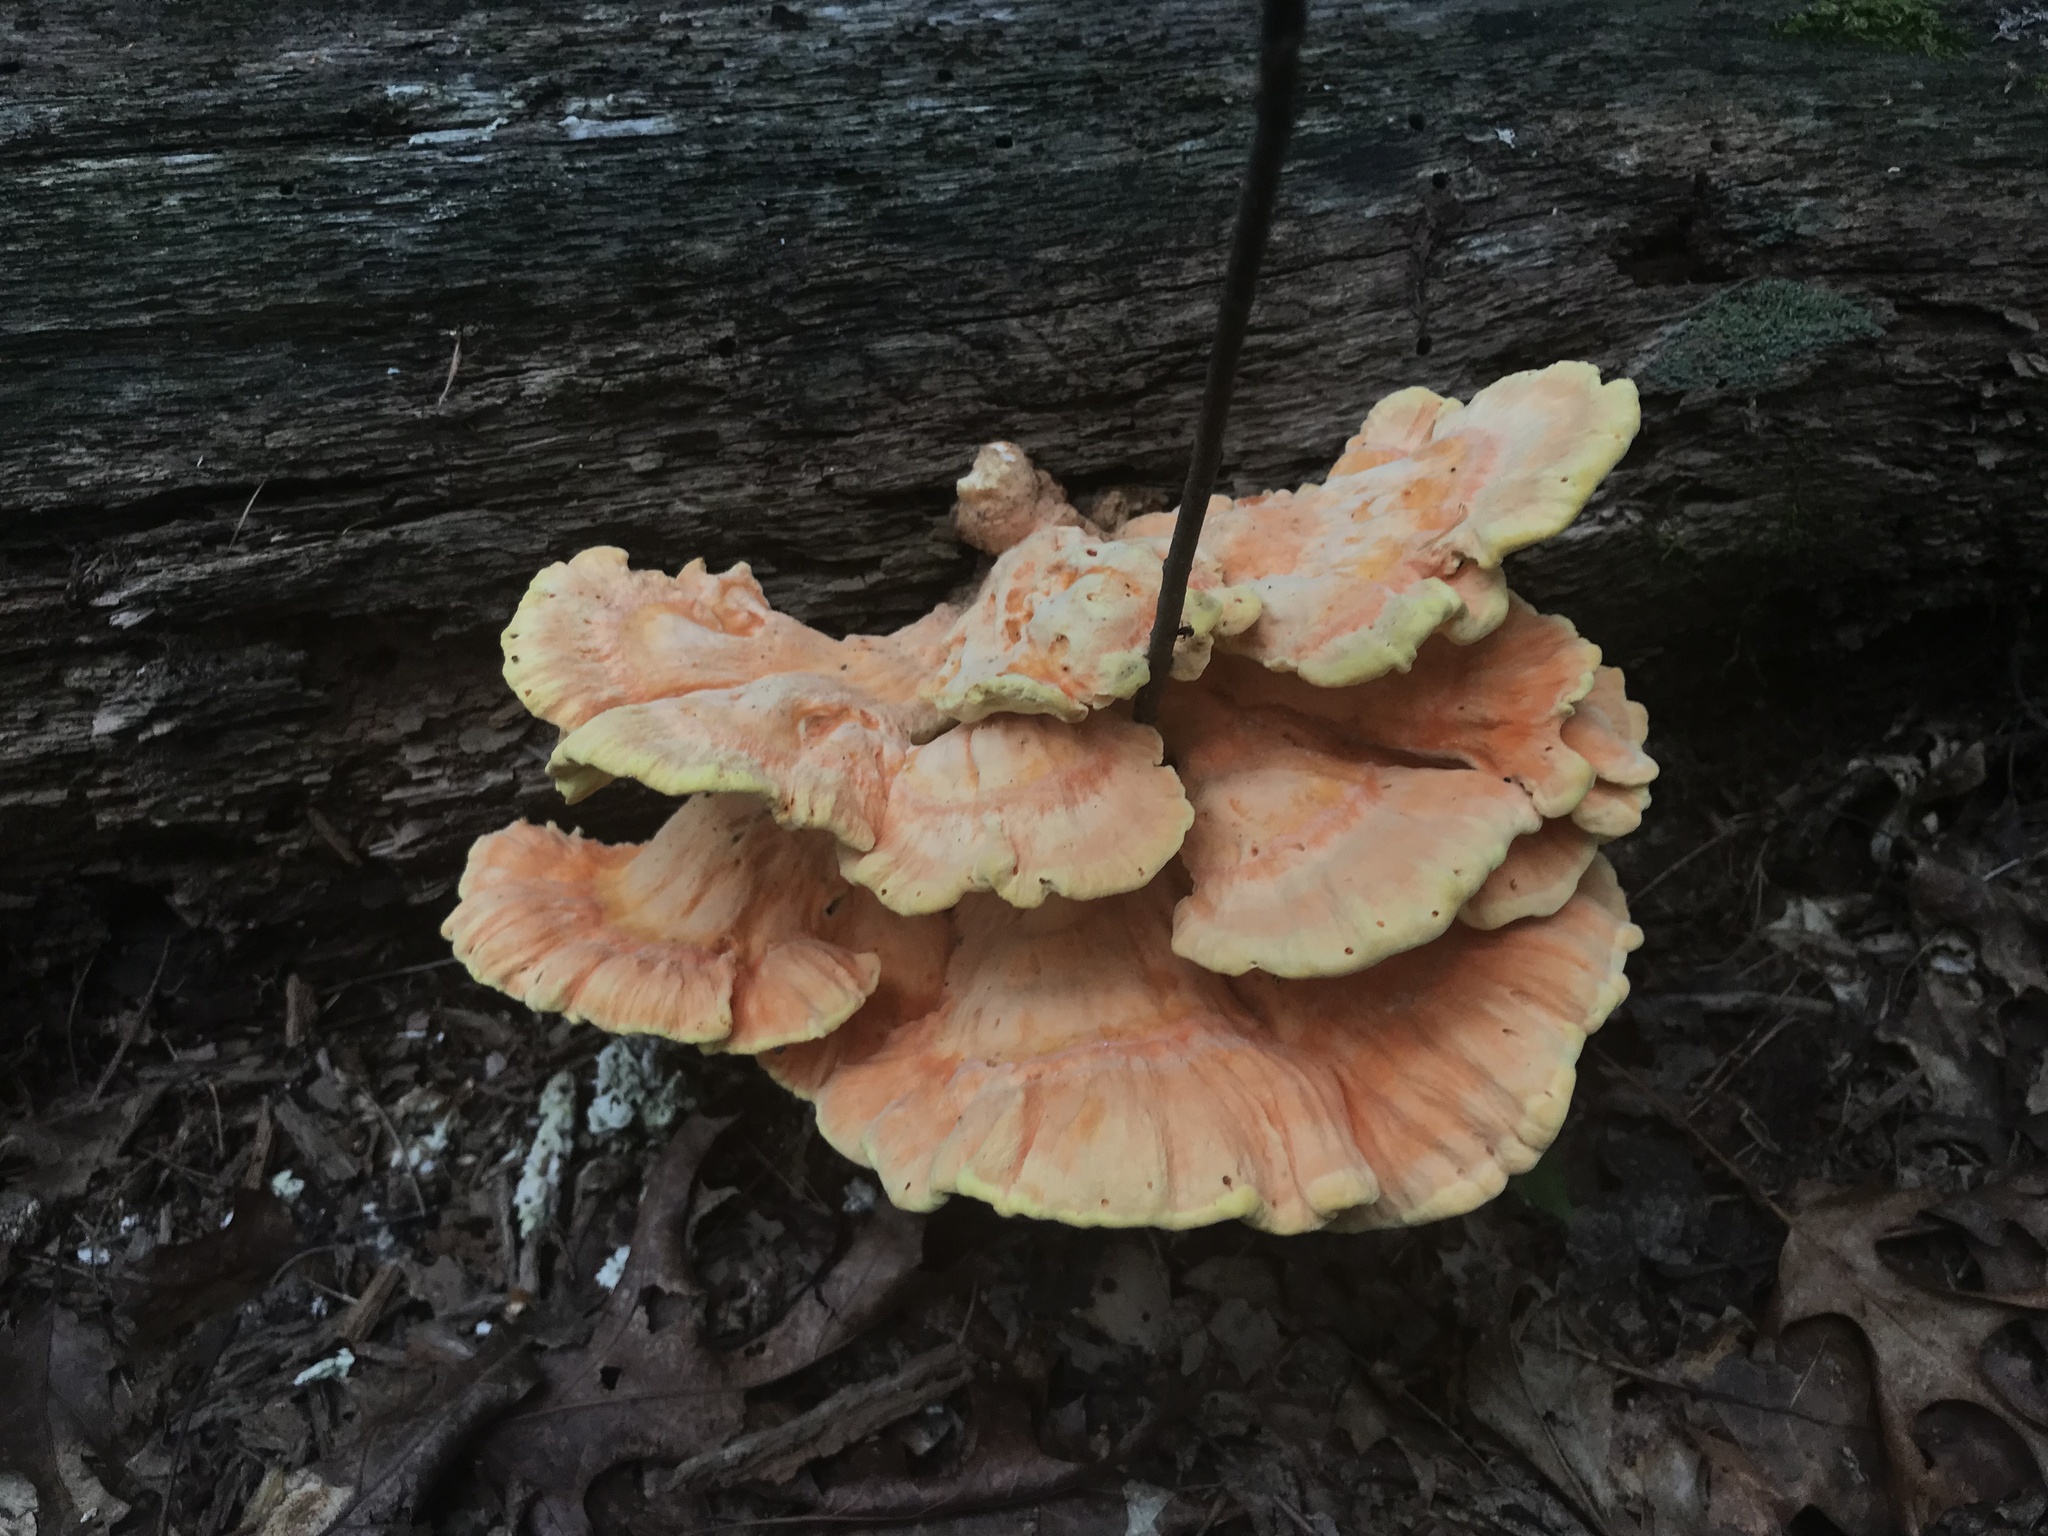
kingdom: Fungi
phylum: Basidiomycota
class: Agaricomycetes
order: Polyporales
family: Laetiporaceae
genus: Laetiporus
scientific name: Laetiporus sulphureus
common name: Chicken of the woods
